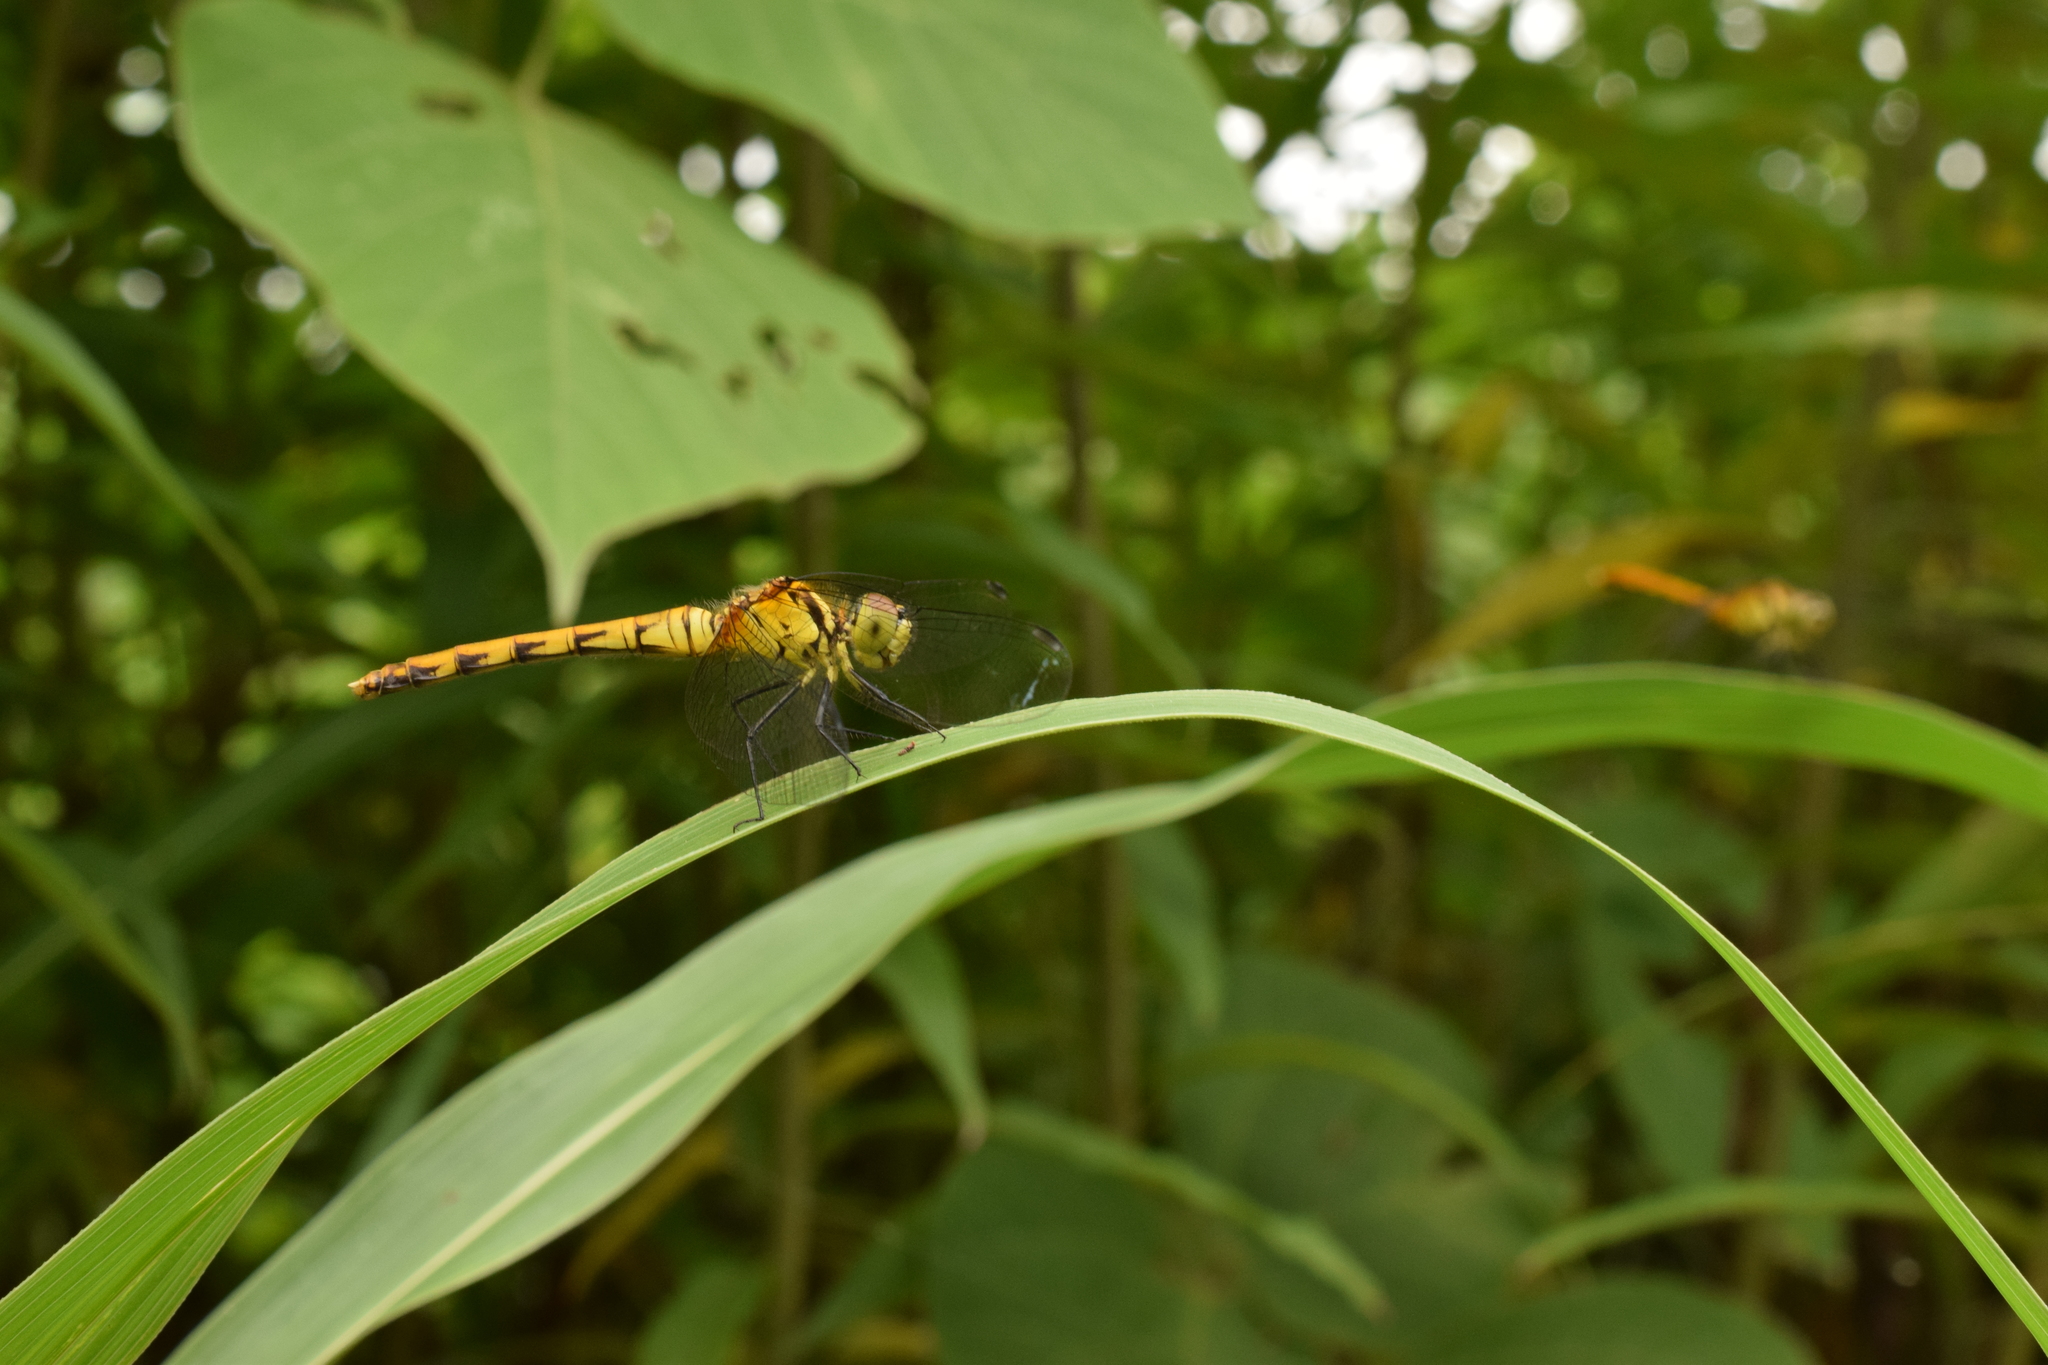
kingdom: Animalia
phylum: Arthropoda
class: Insecta
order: Odonata
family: Libellulidae
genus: Sympetrum
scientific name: Sympetrum eroticum
